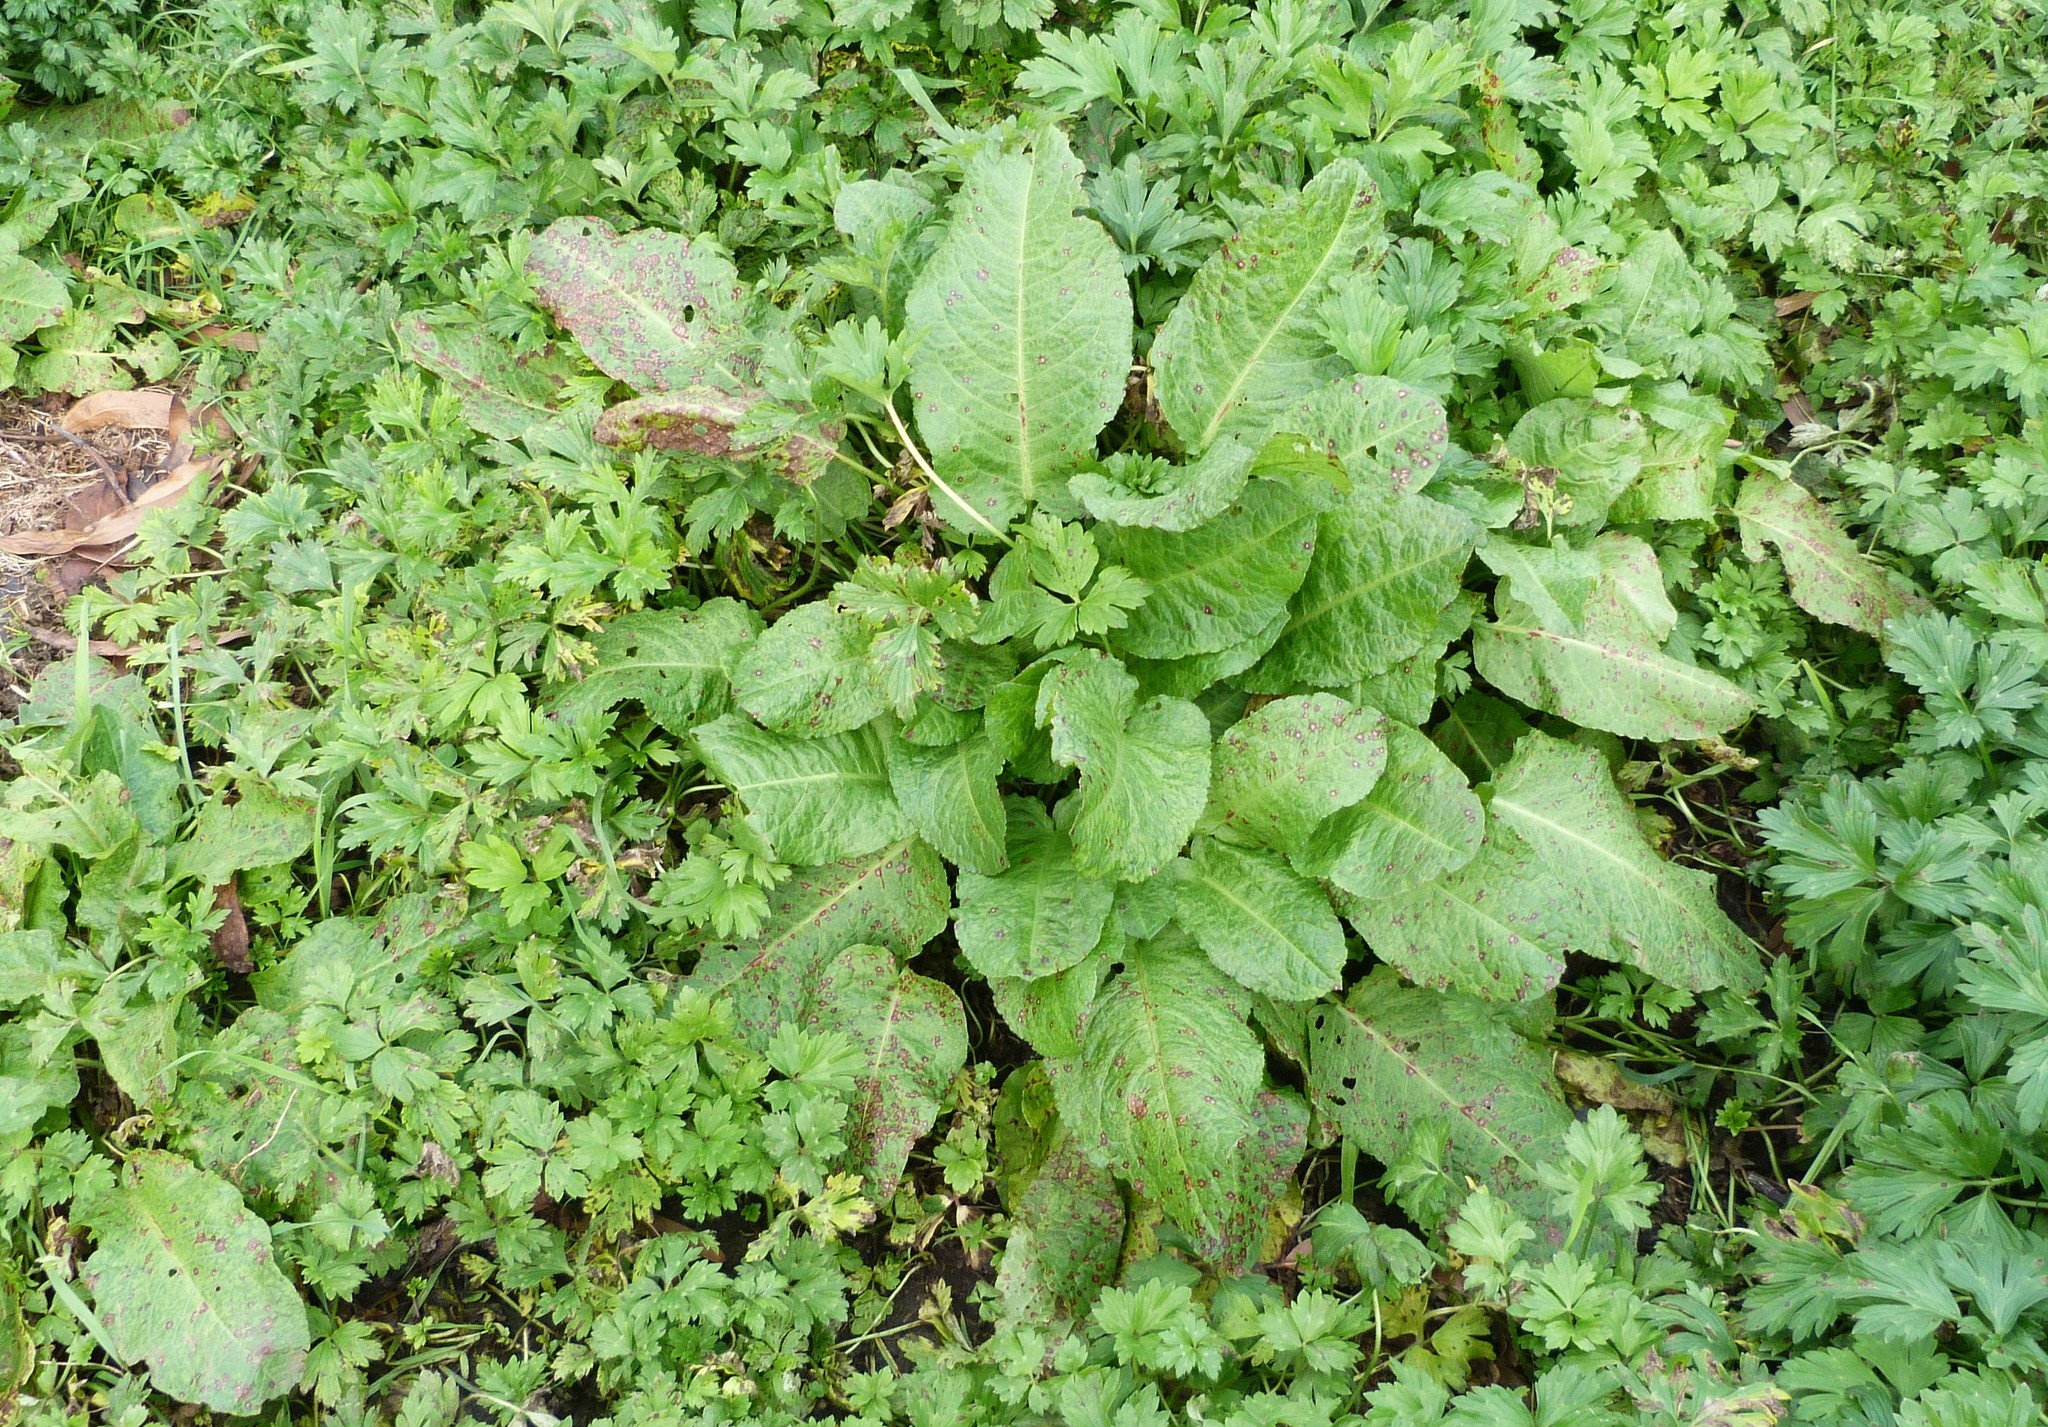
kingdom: Plantae
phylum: Tracheophyta
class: Magnoliopsida
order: Caryophyllales
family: Polygonaceae
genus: Rumex
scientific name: Rumex obtusifolius
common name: Bitter dock
